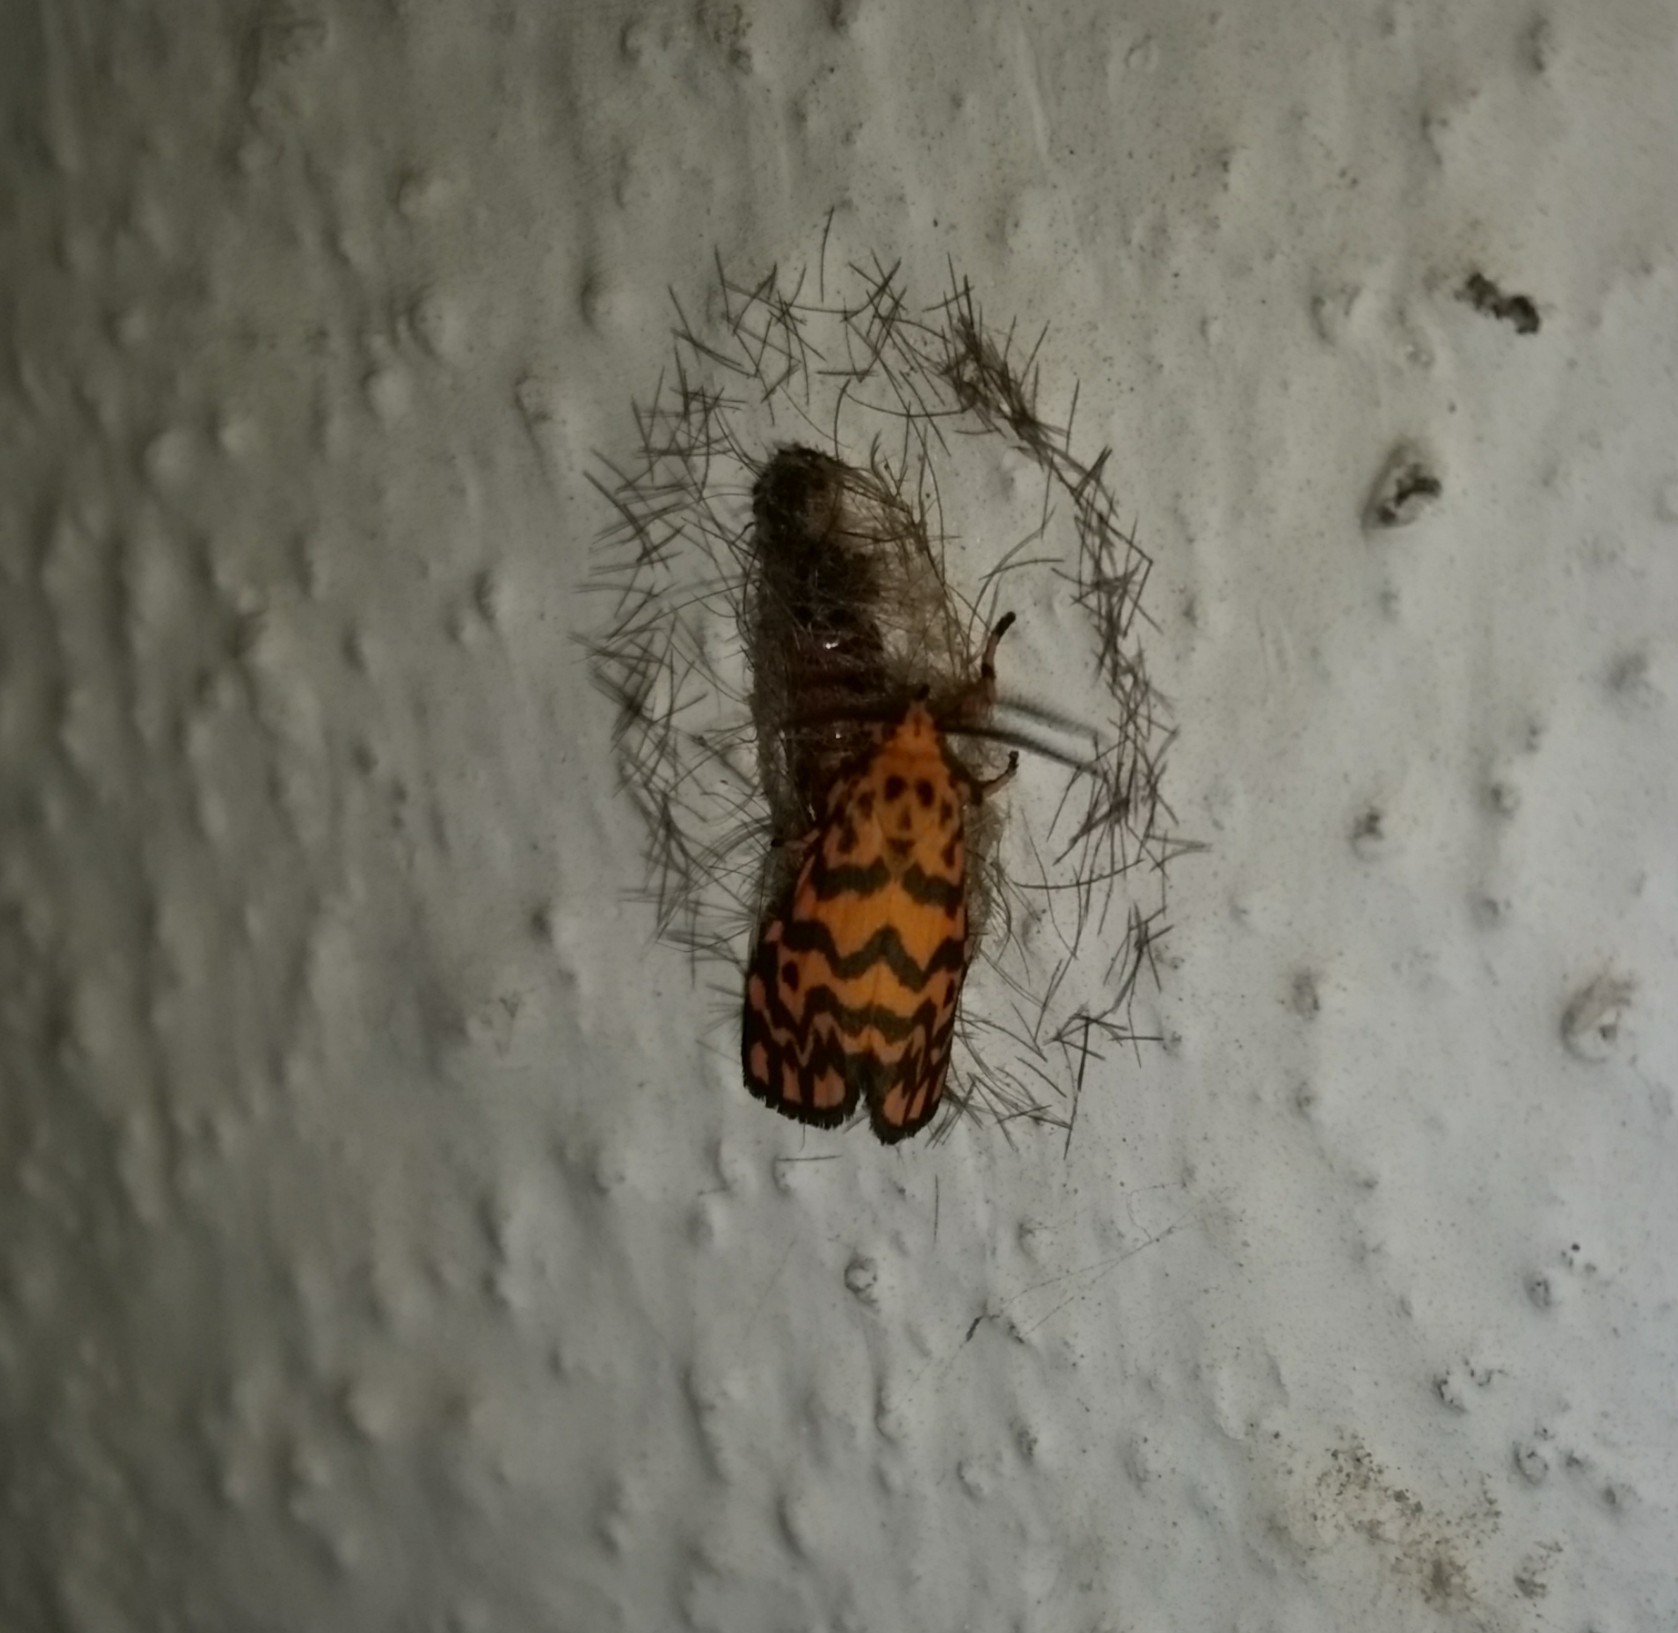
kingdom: Animalia
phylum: Arthropoda
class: Insecta
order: Lepidoptera
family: Erebidae
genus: Nepita
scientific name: Nepita conferta
